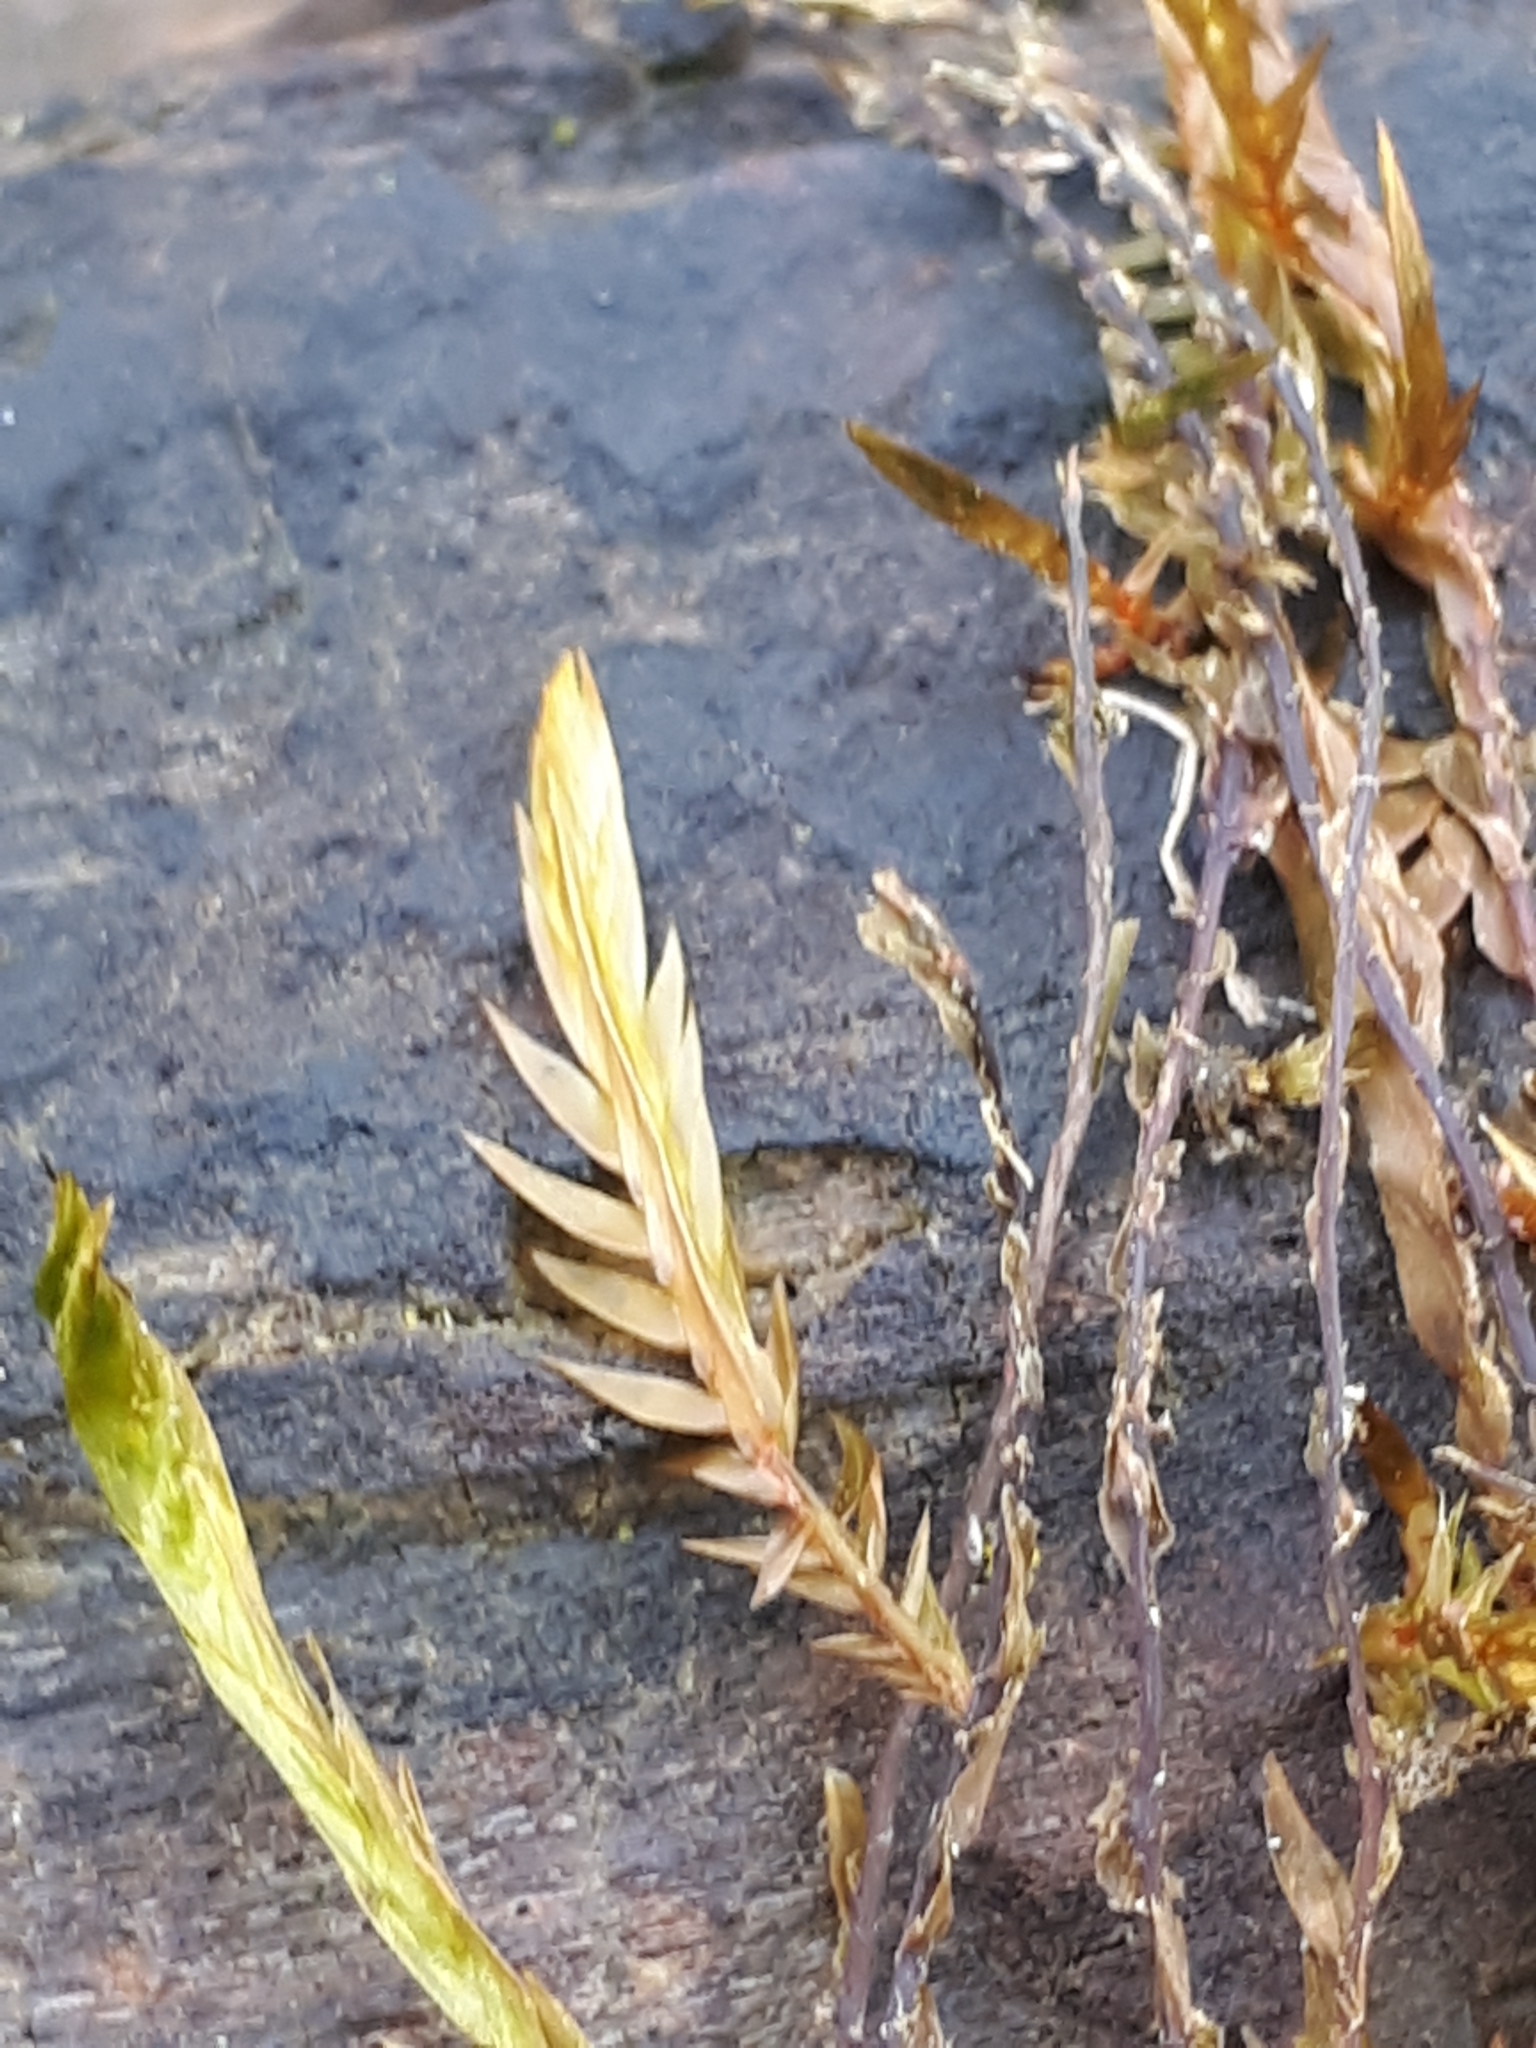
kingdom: Plantae
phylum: Bryophyta
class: Bryopsida
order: Hypnales
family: Fontinalaceae
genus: Fontinalis
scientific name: Fontinalis antipyretica
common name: Greater water-moss
